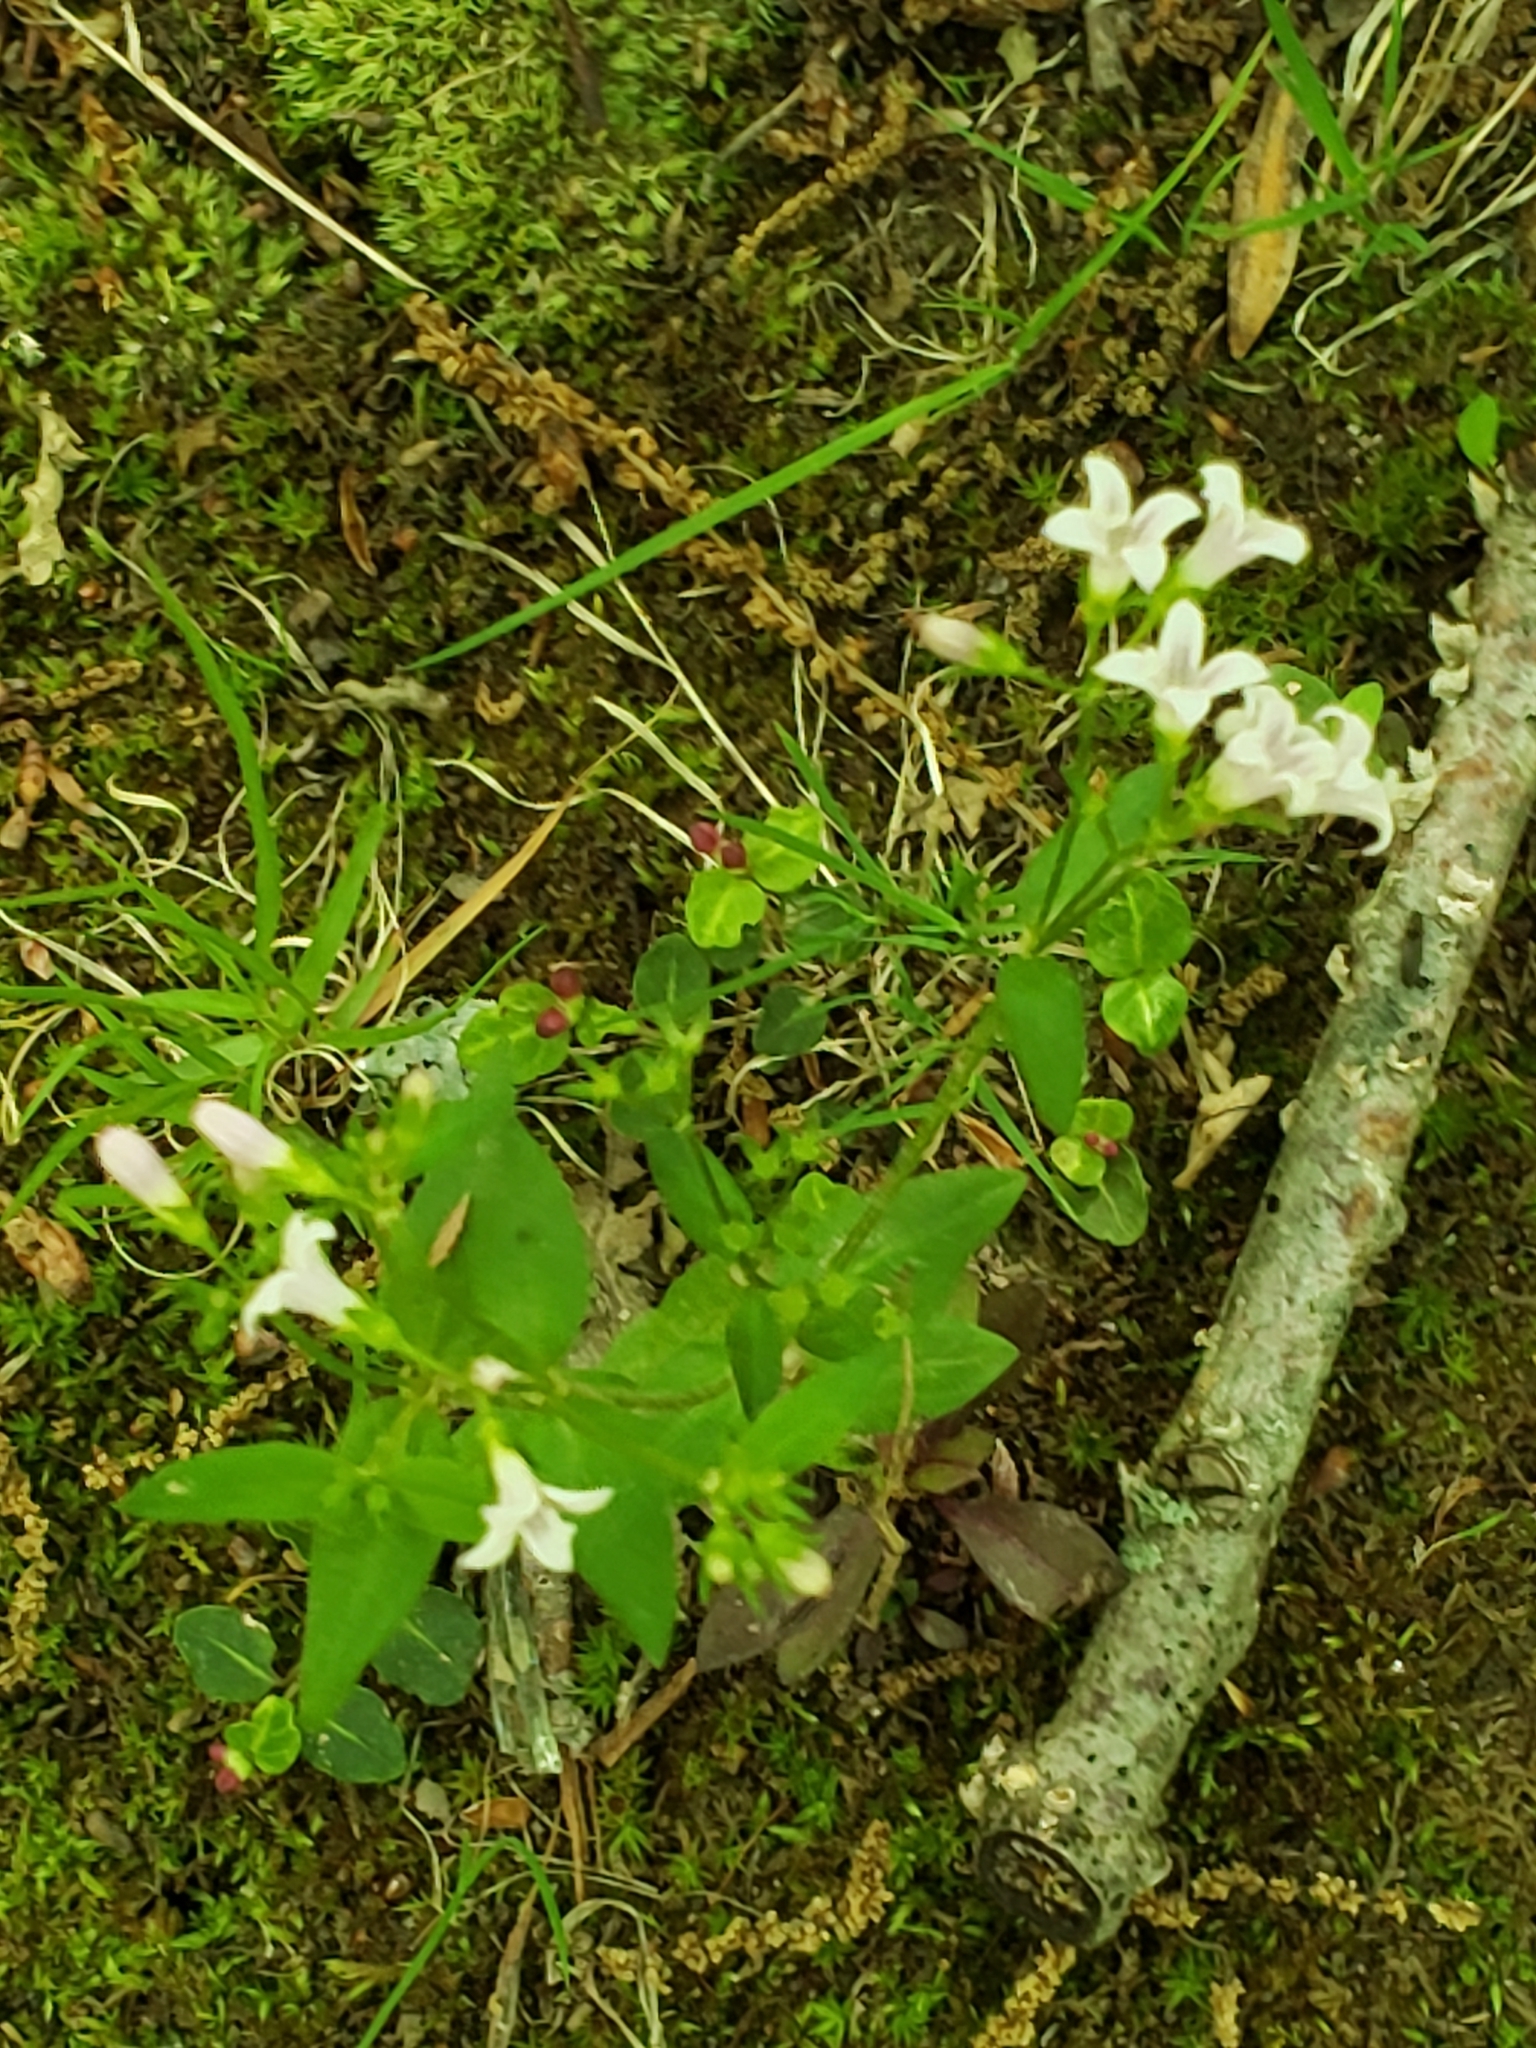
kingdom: Plantae
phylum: Tracheophyta
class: Magnoliopsida
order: Gentianales
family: Rubiaceae
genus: Houstonia
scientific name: Houstonia purpurea
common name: Summer bluet
